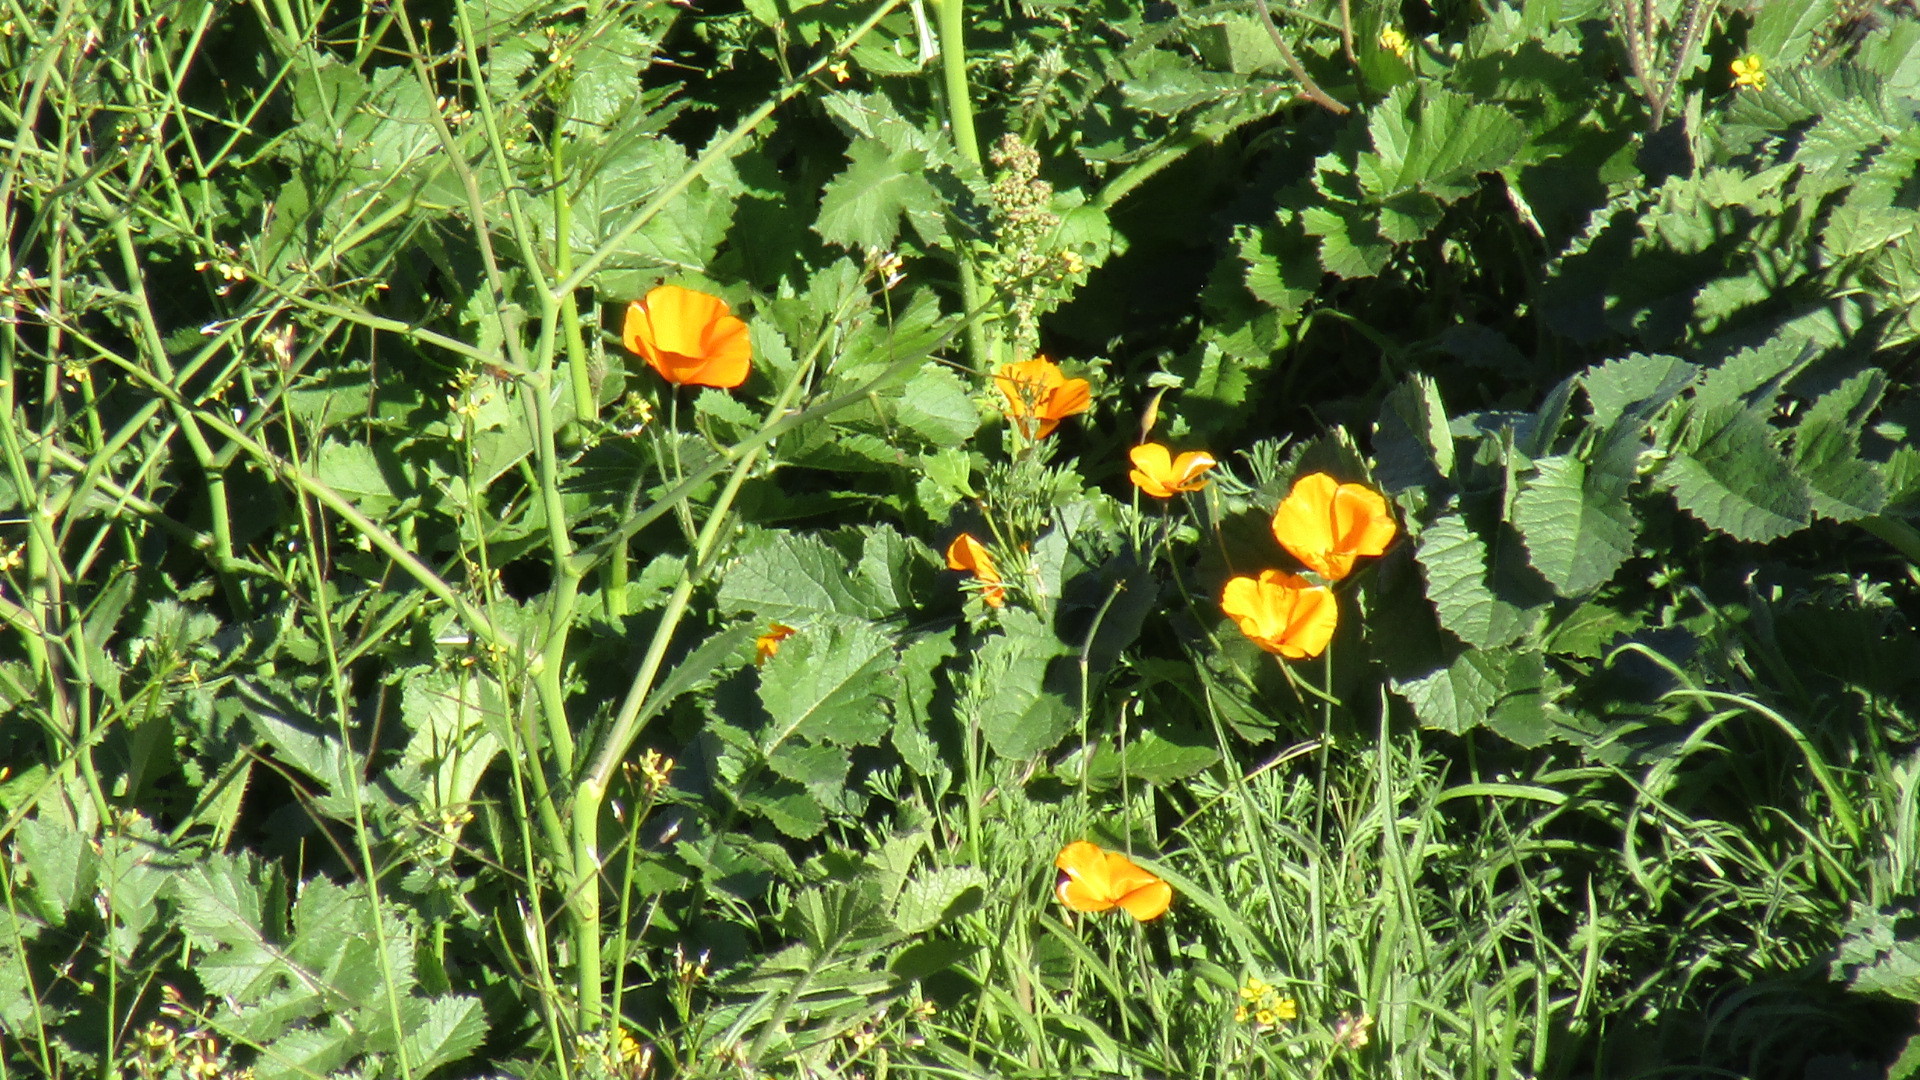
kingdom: Plantae
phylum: Tracheophyta
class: Magnoliopsida
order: Ranunculales
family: Papaveraceae
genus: Eschscholzia
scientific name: Eschscholzia californica
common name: California poppy
